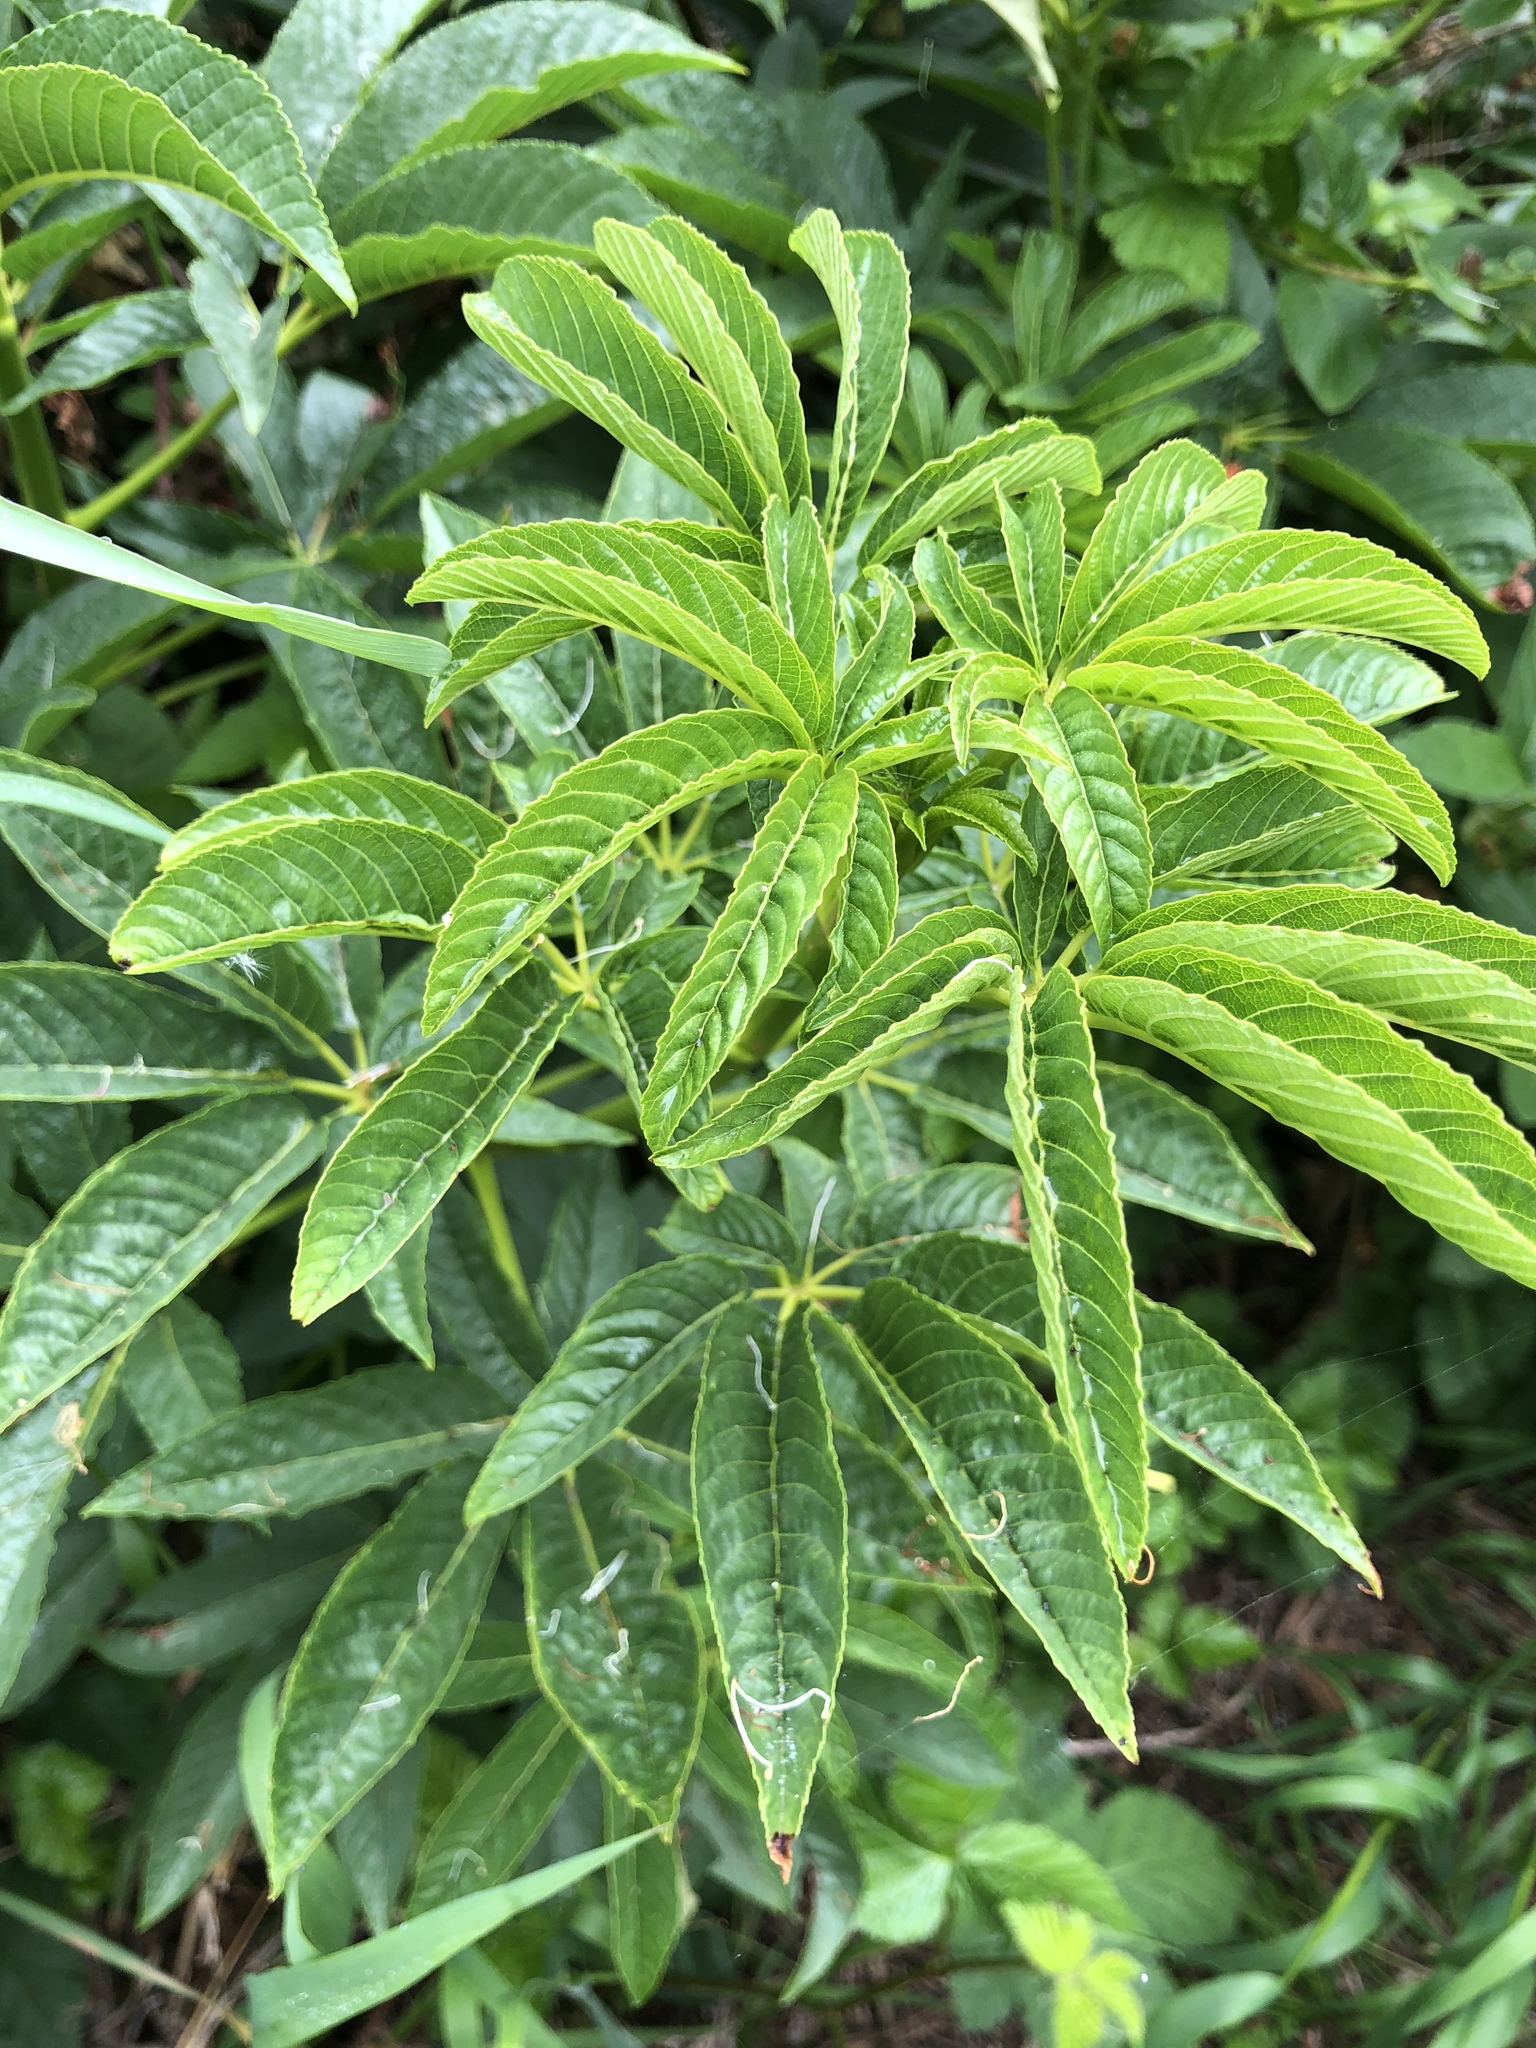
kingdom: Plantae
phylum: Tracheophyta
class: Magnoliopsida
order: Sapindales
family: Sapindaceae
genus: Aesculus
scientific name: Aesculus californica
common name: California buckeye
